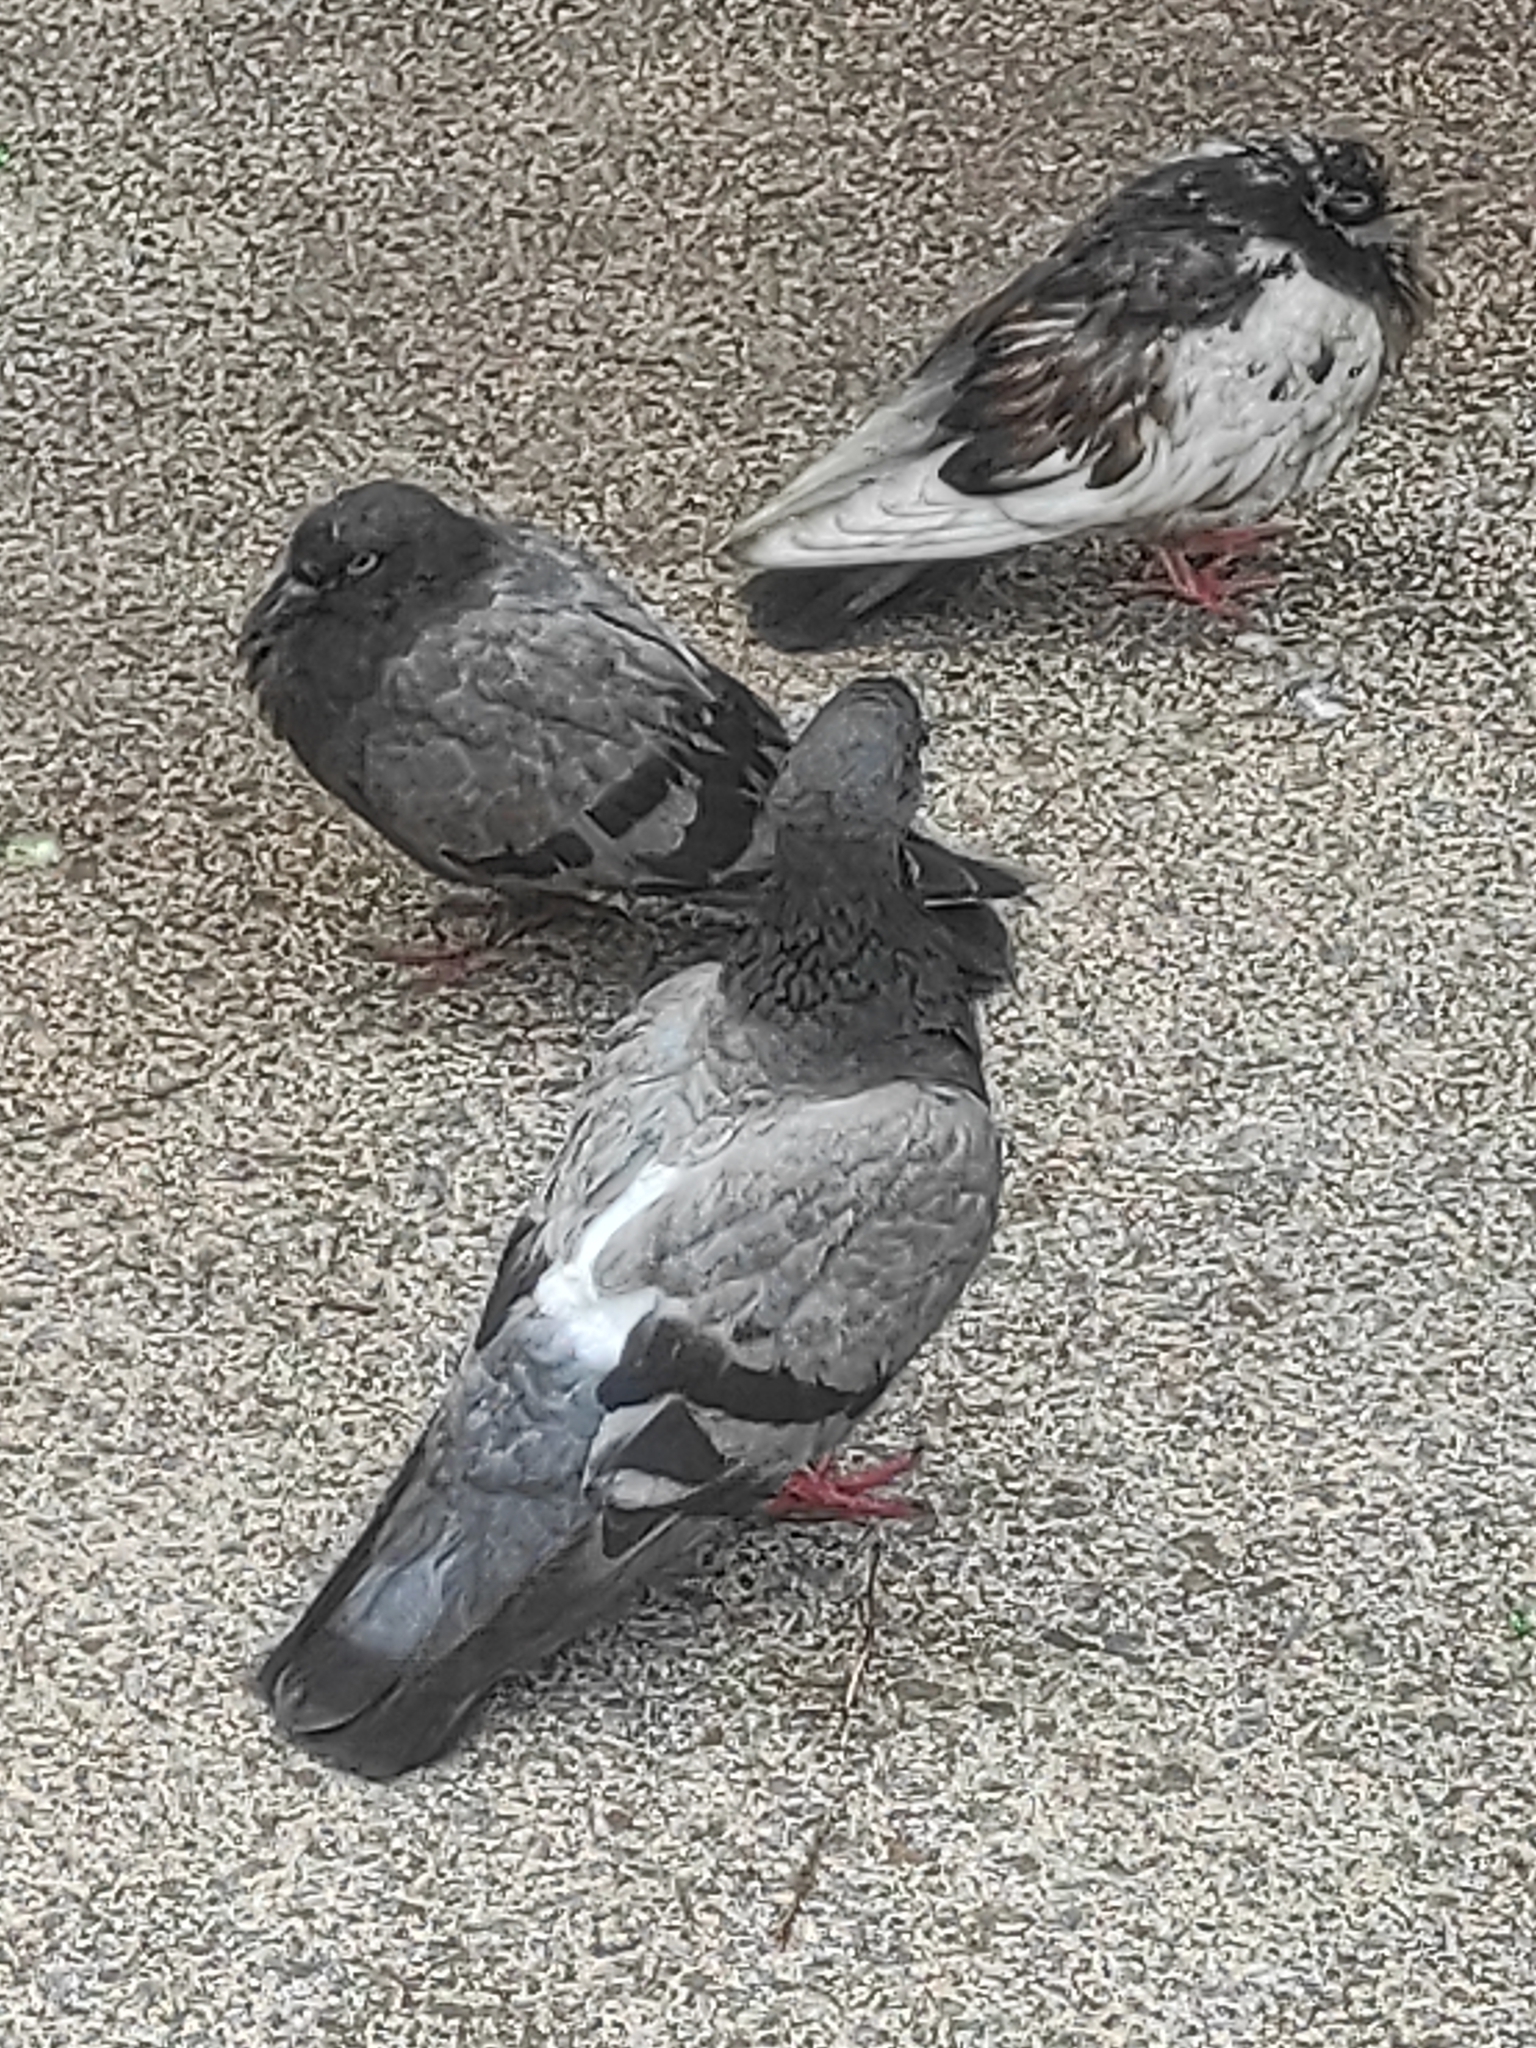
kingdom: Animalia
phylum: Chordata
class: Aves
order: Columbiformes
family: Columbidae
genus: Columba
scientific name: Columba livia
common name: Rock pigeon
